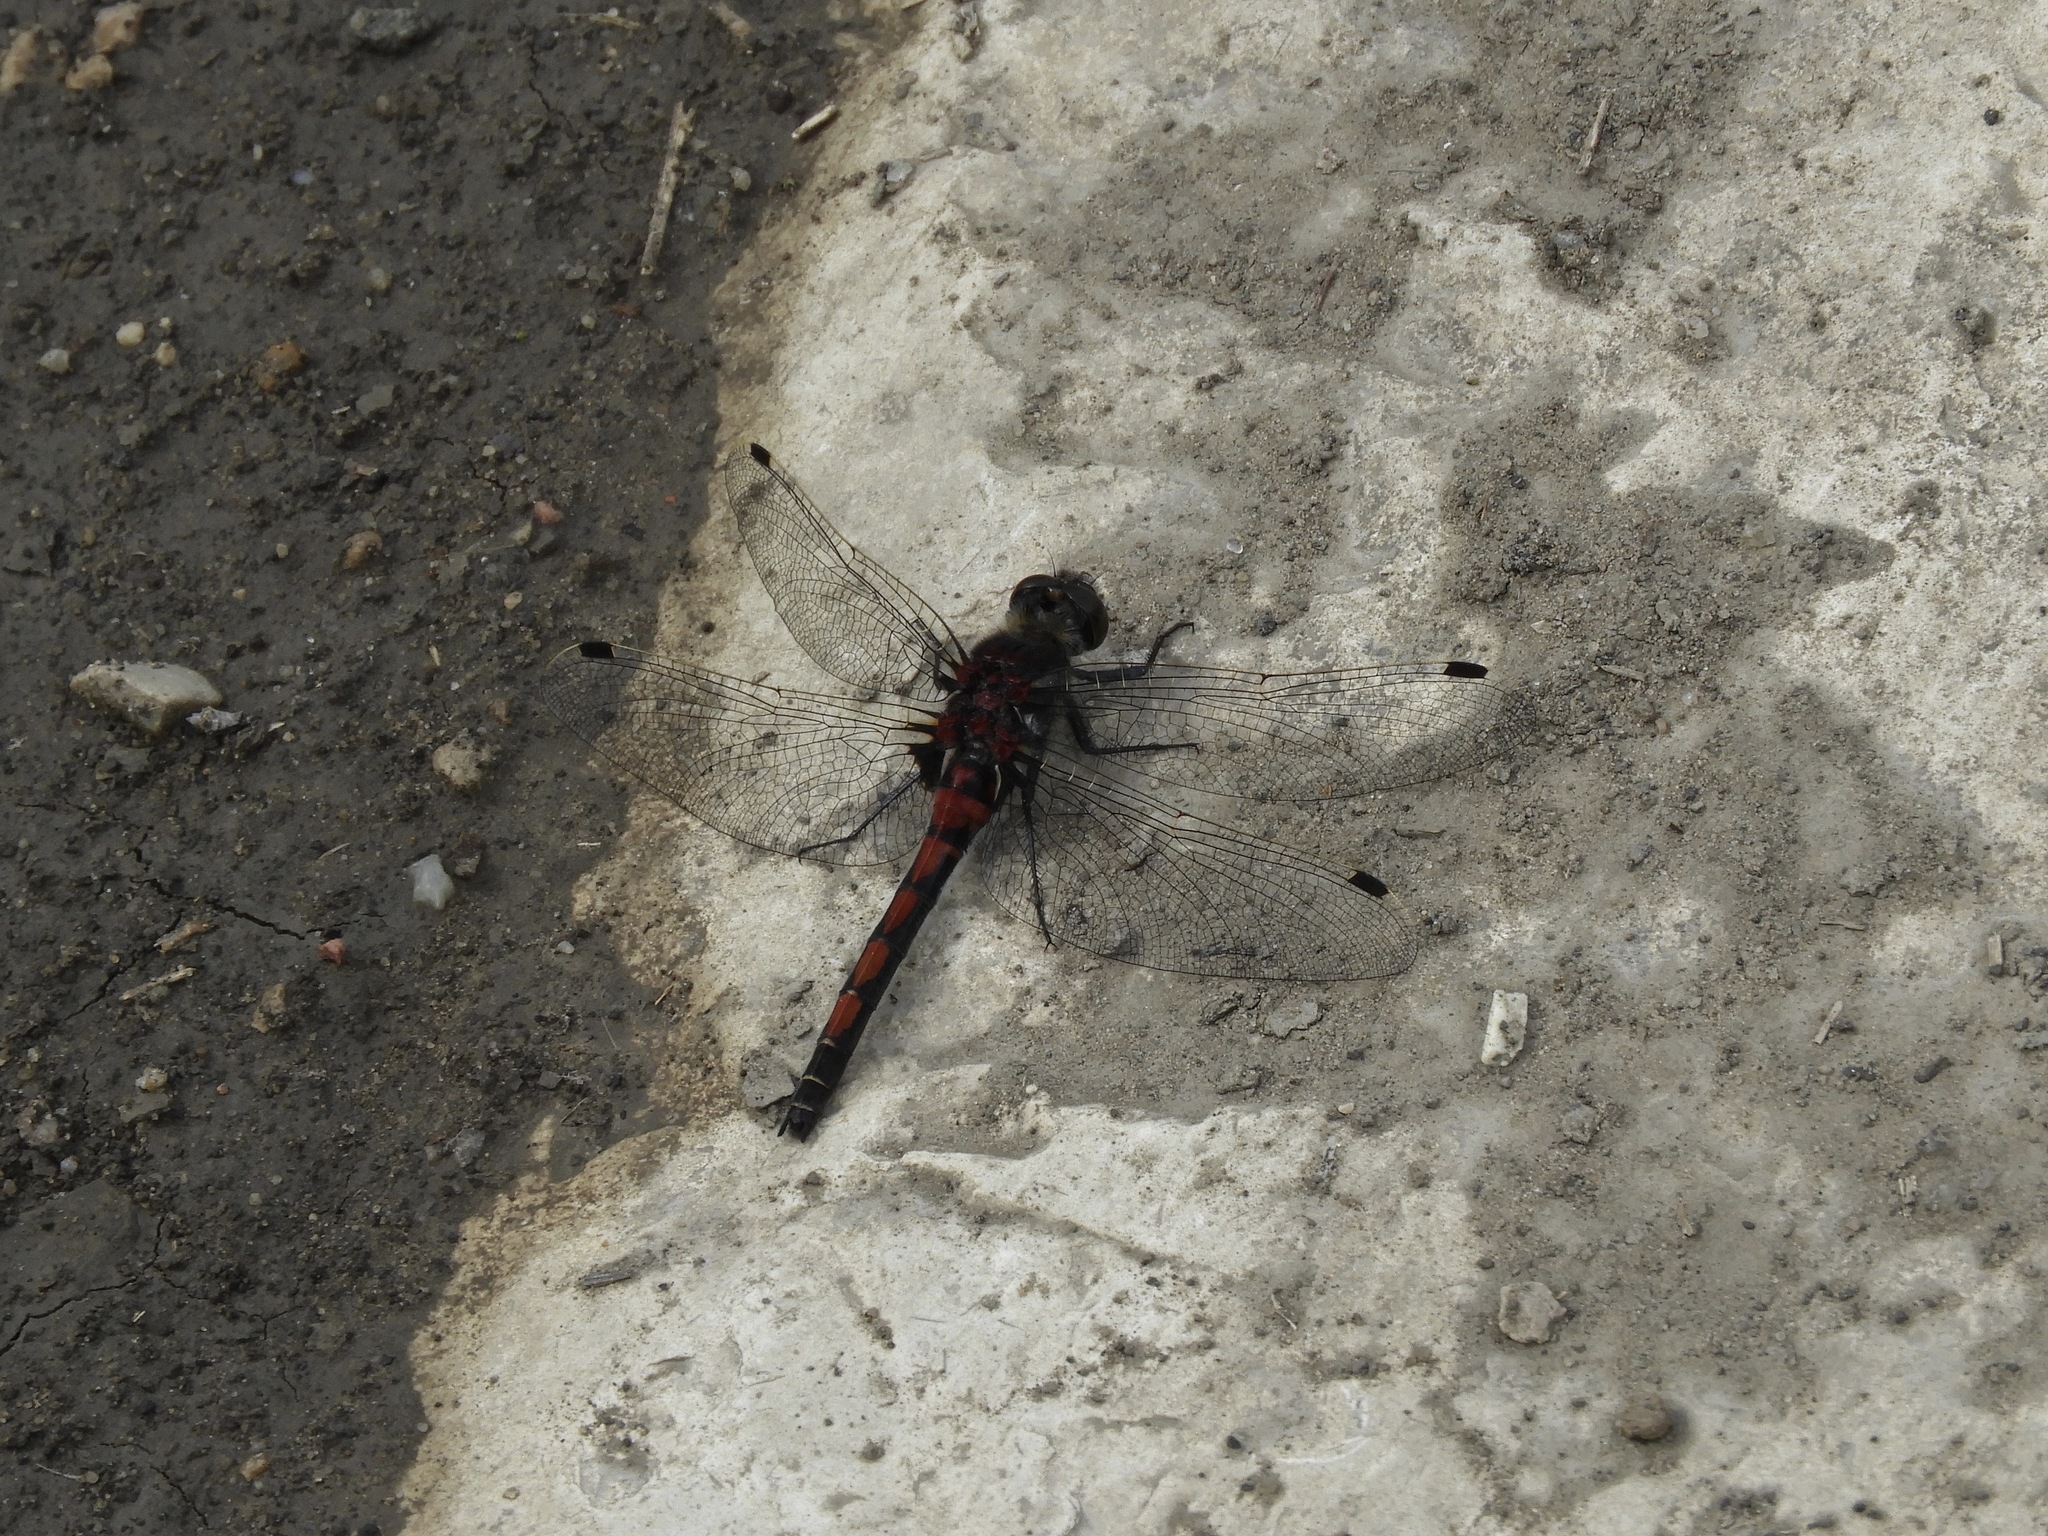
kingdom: Animalia
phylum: Arthropoda
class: Insecta
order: Odonata
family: Libellulidae
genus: Leucorrhinia
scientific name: Leucorrhinia borealis
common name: Boreal whiteface
